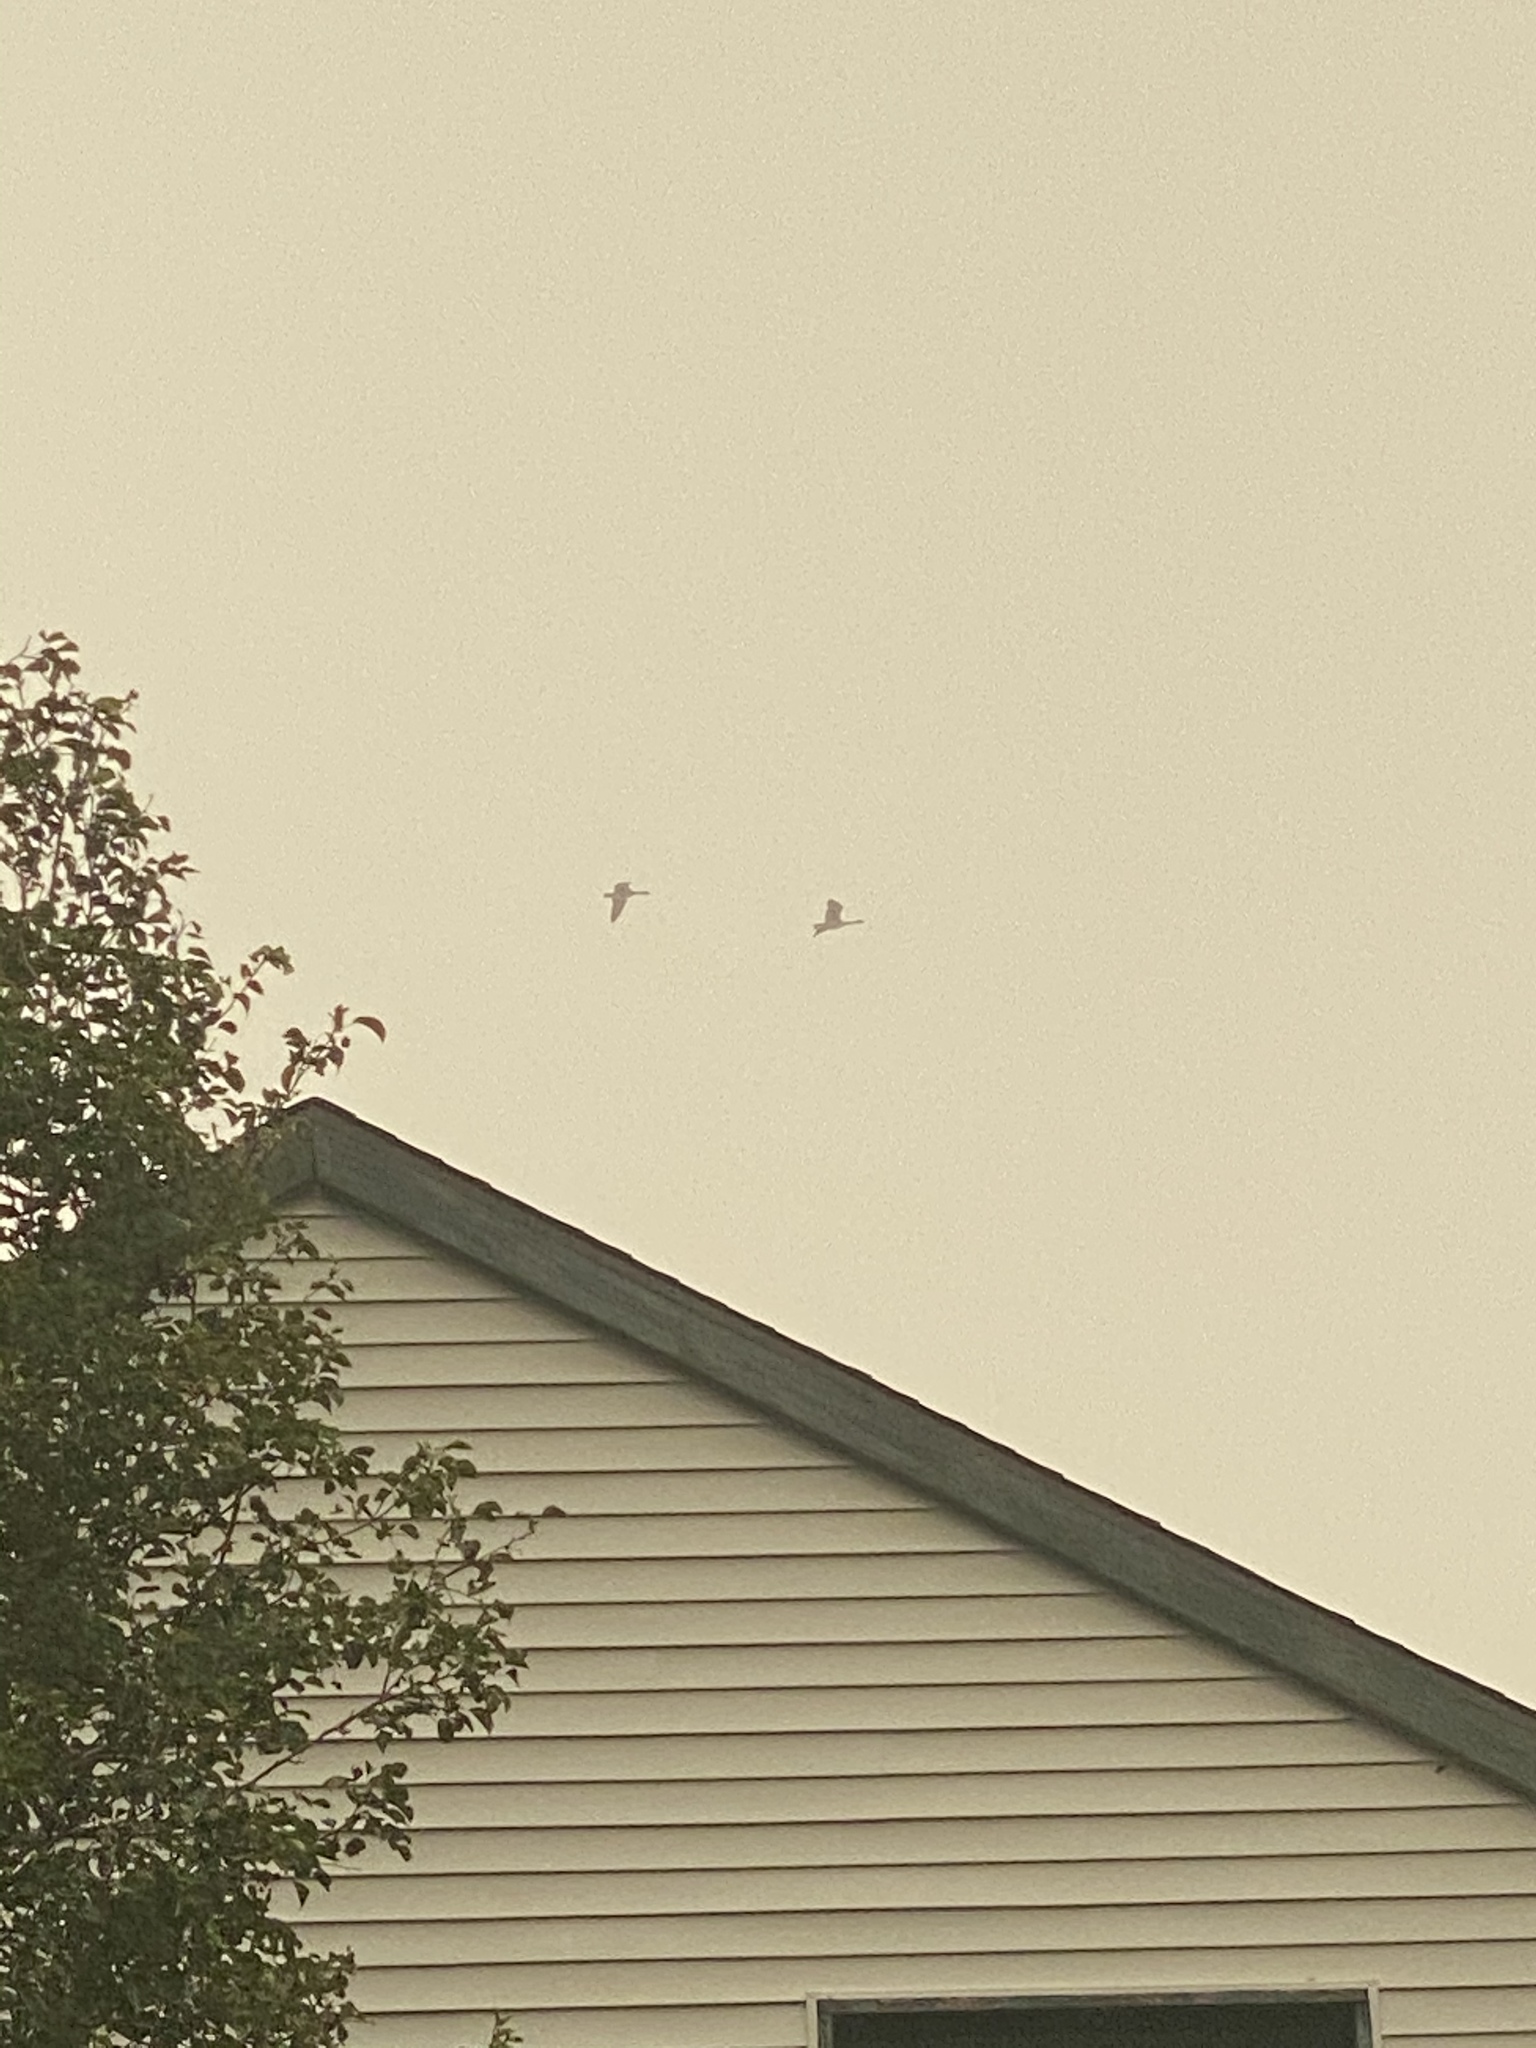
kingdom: Animalia
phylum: Chordata
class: Aves
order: Anseriformes
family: Anatidae
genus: Branta
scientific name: Branta canadensis
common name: Canada goose
